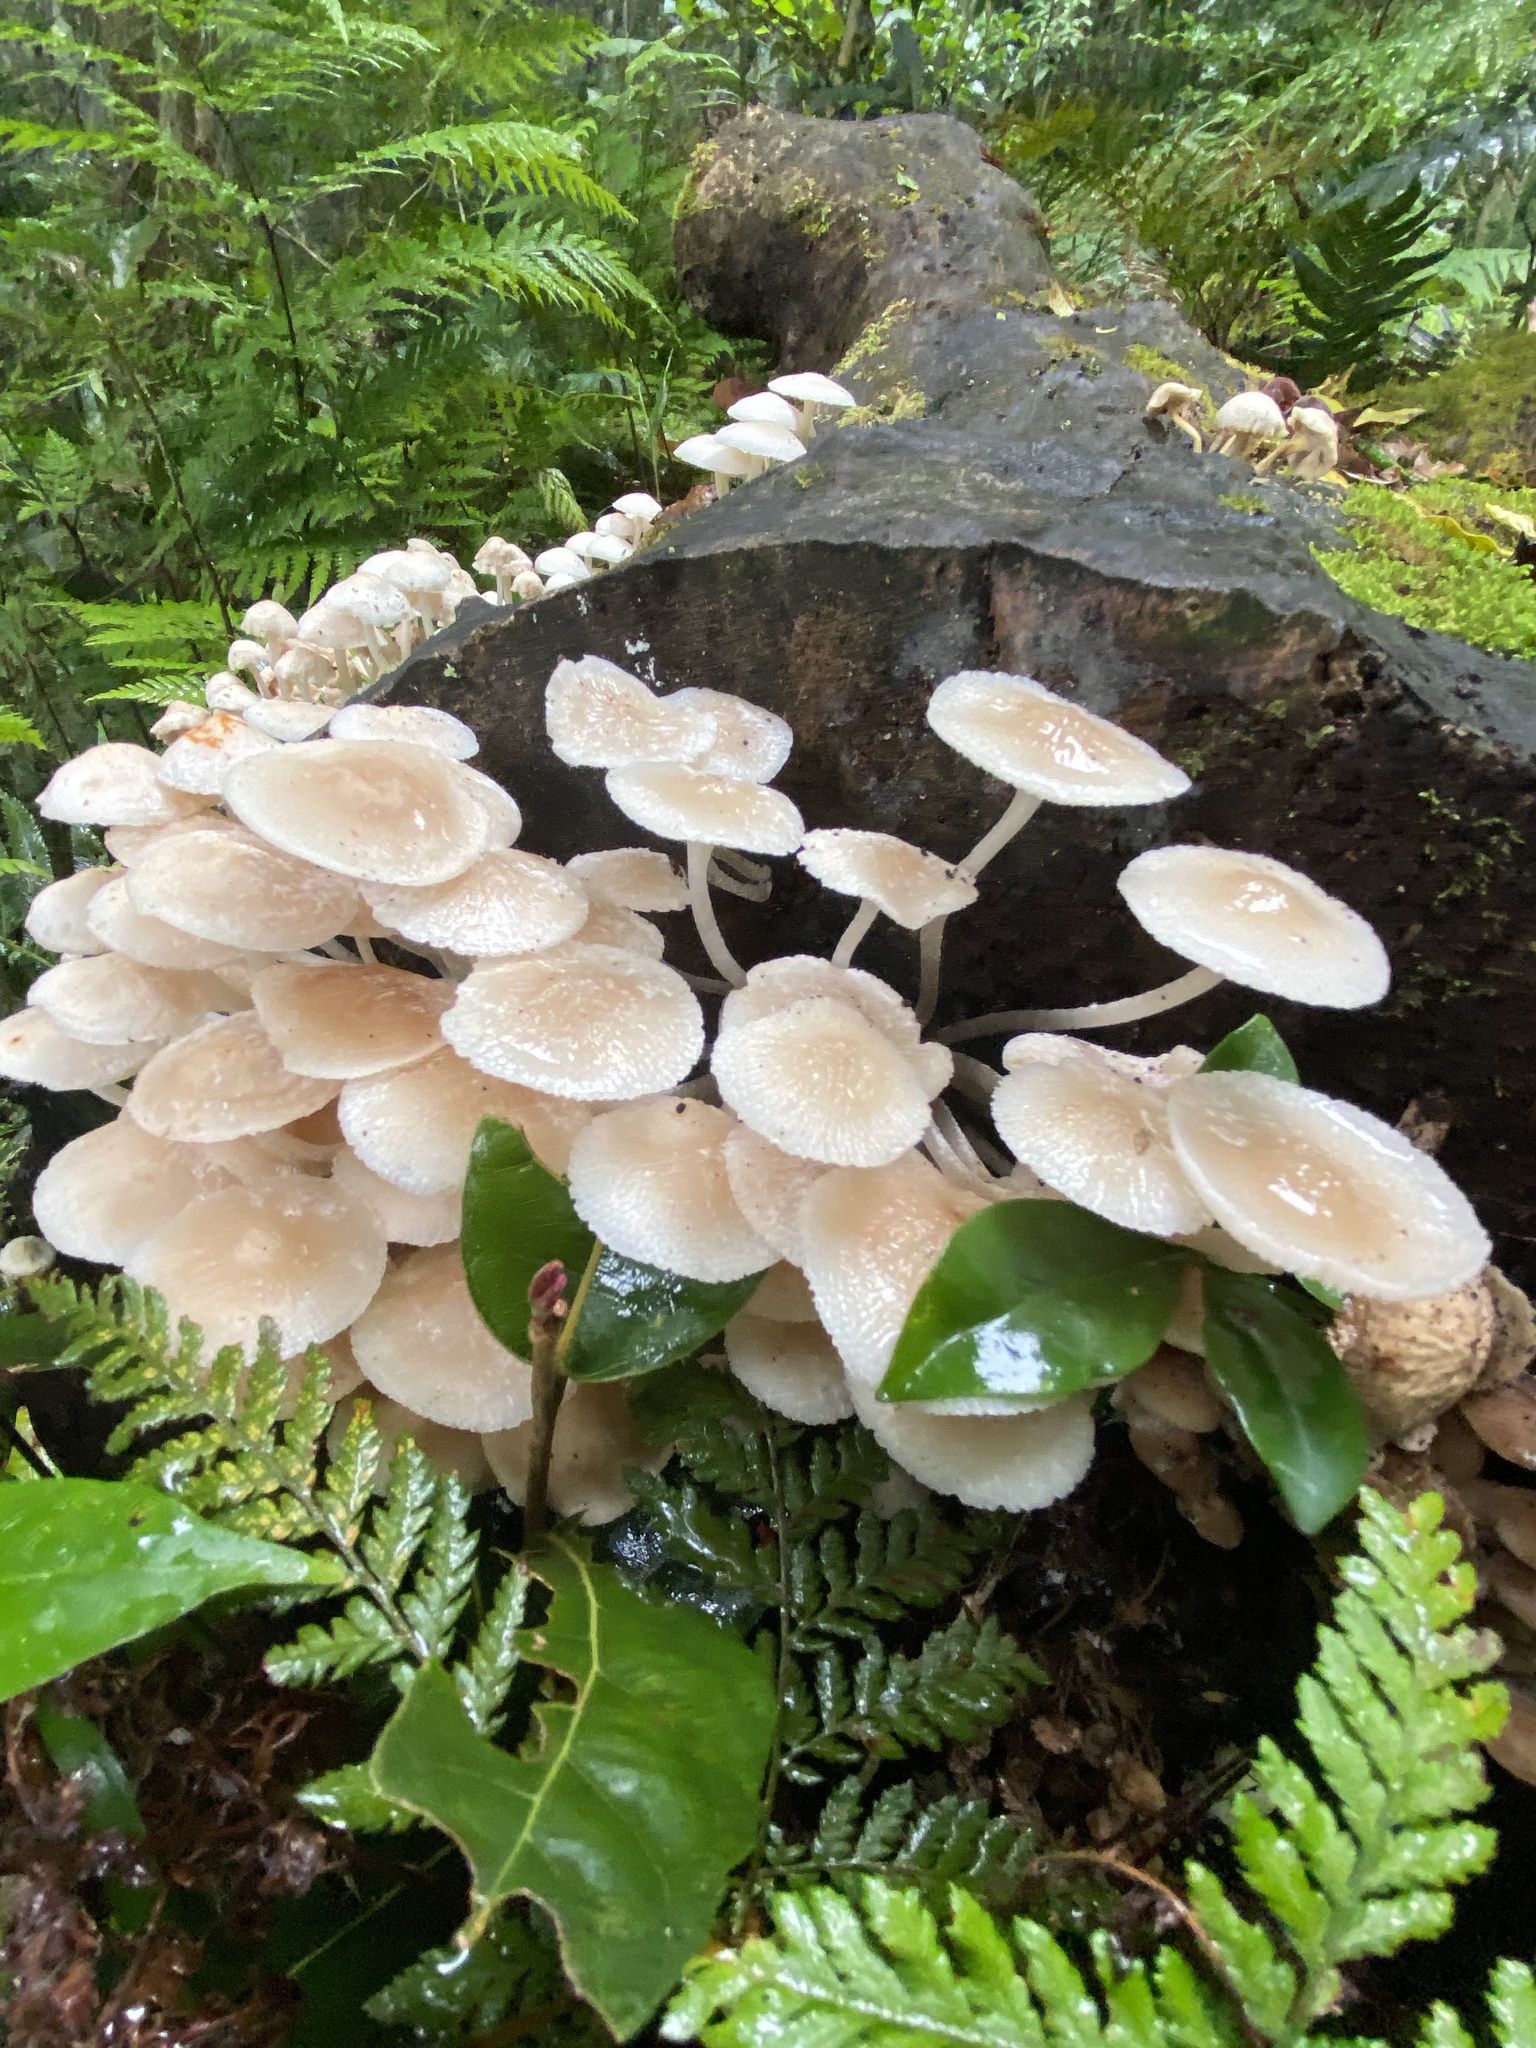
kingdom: Fungi
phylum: Basidiomycota
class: Agaricomycetes
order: Agaricales
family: Mycenaceae
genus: Filoboletus
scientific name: Filoboletus manipularis
